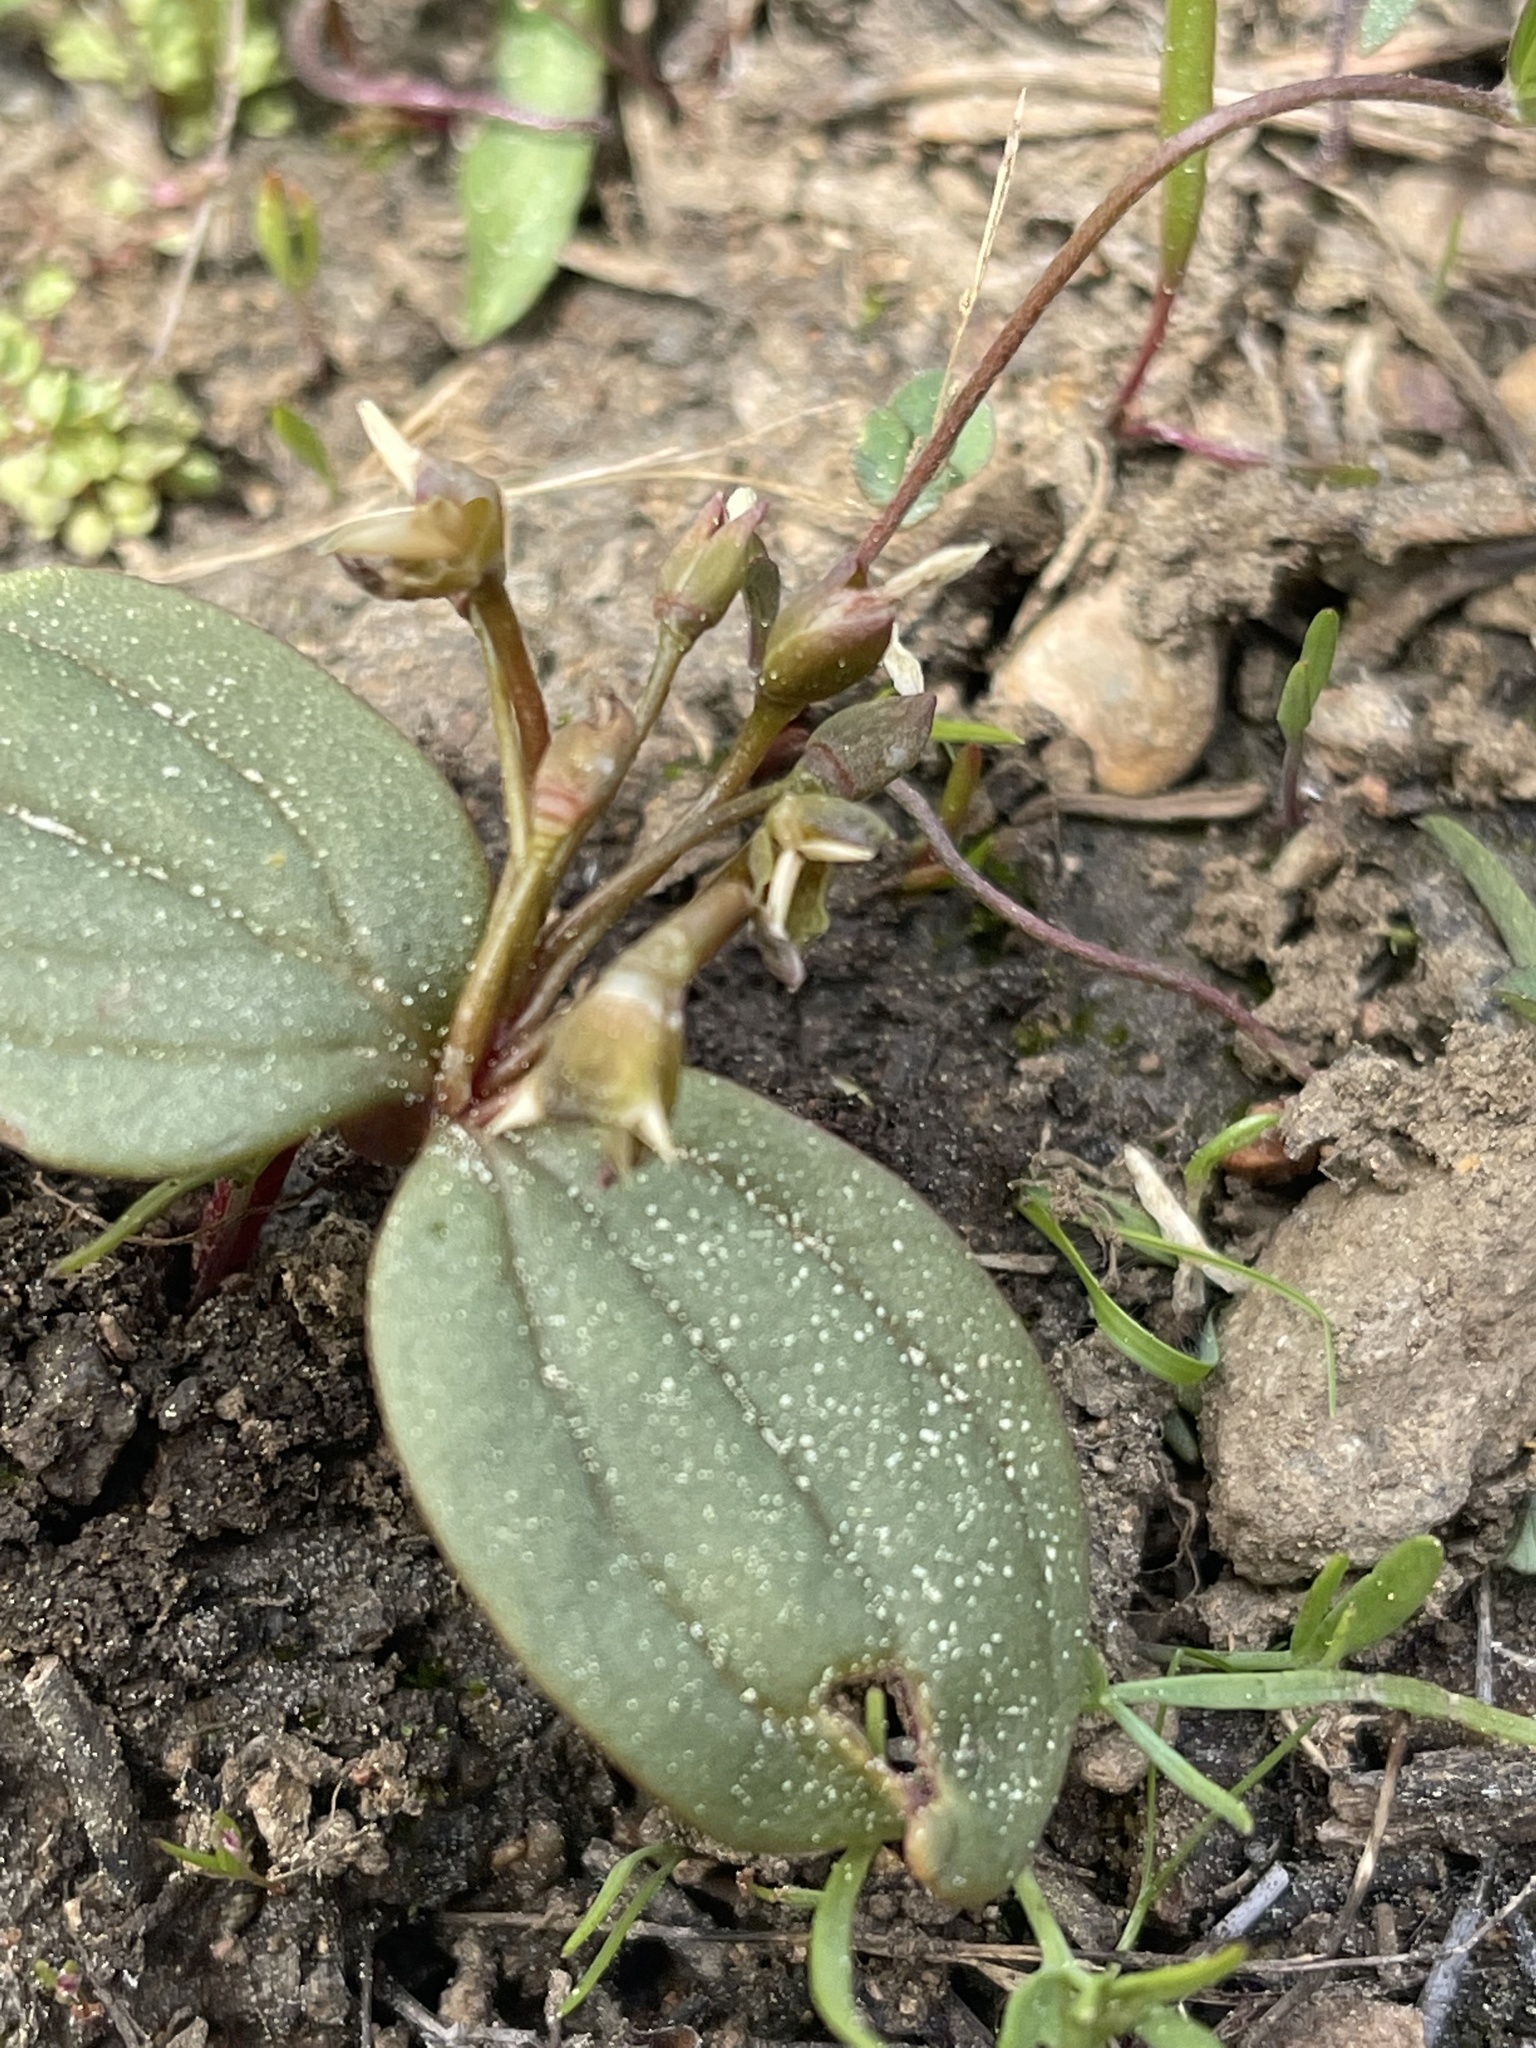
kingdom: Plantae
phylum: Tracheophyta
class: Magnoliopsida
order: Caryophyllales
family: Montiaceae
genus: Claytonia
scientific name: Claytonia obovata
